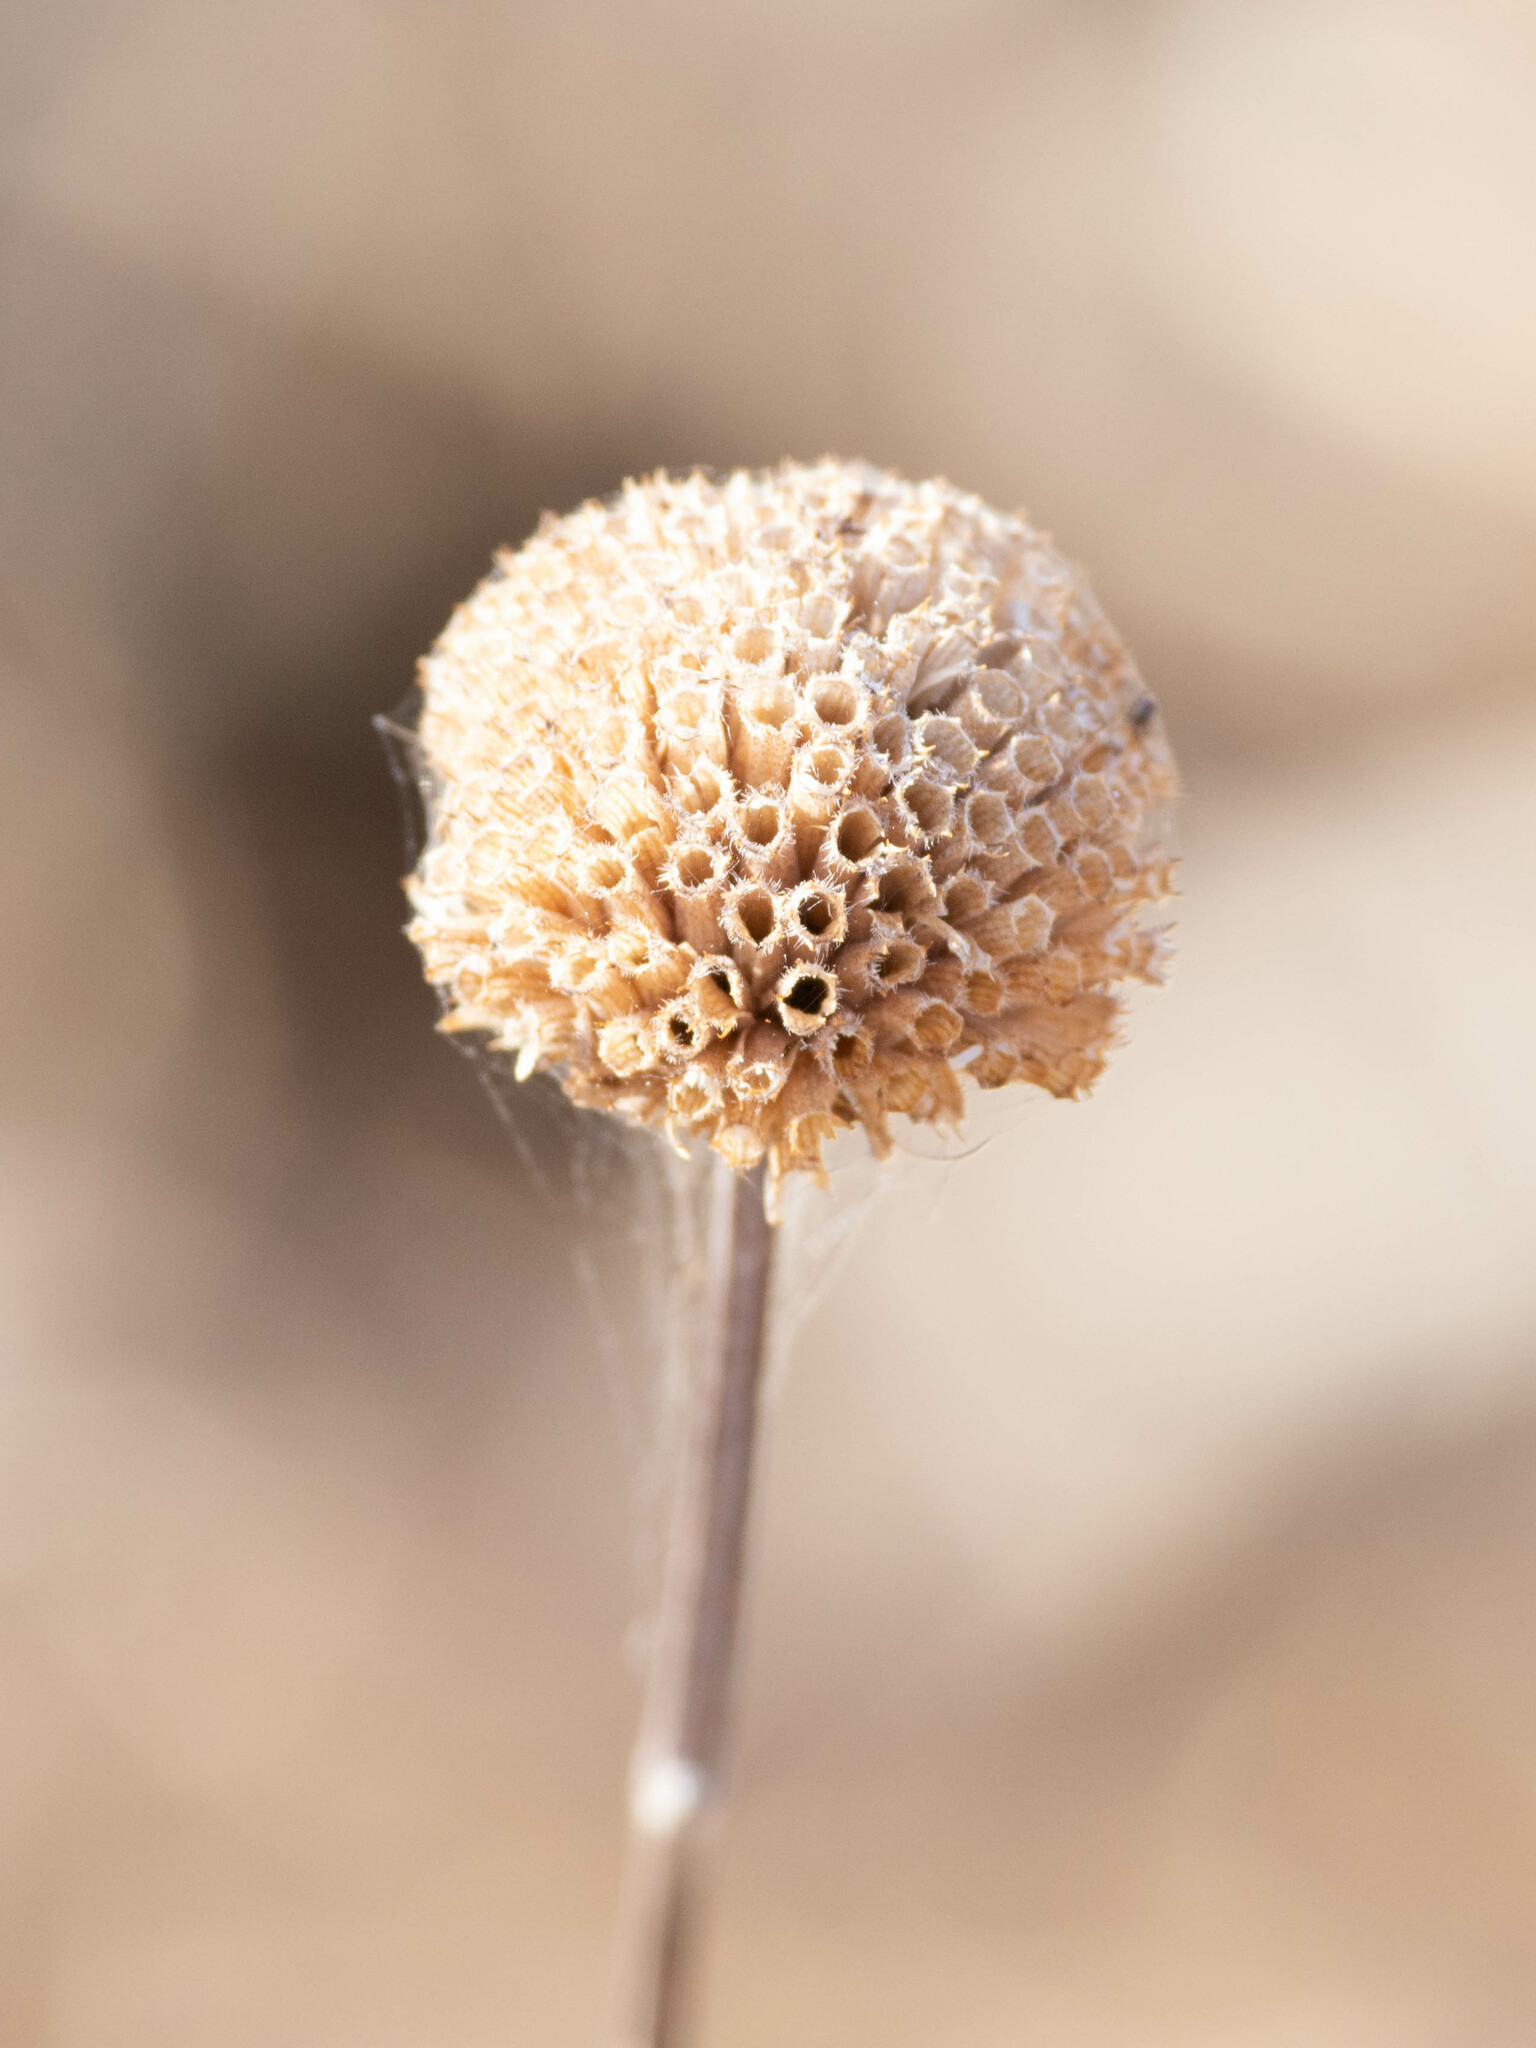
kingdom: Plantae
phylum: Tracheophyta
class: Magnoliopsida
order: Lamiales
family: Lamiaceae
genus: Monarda
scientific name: Monarda fistulosa
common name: Purple beebalm
